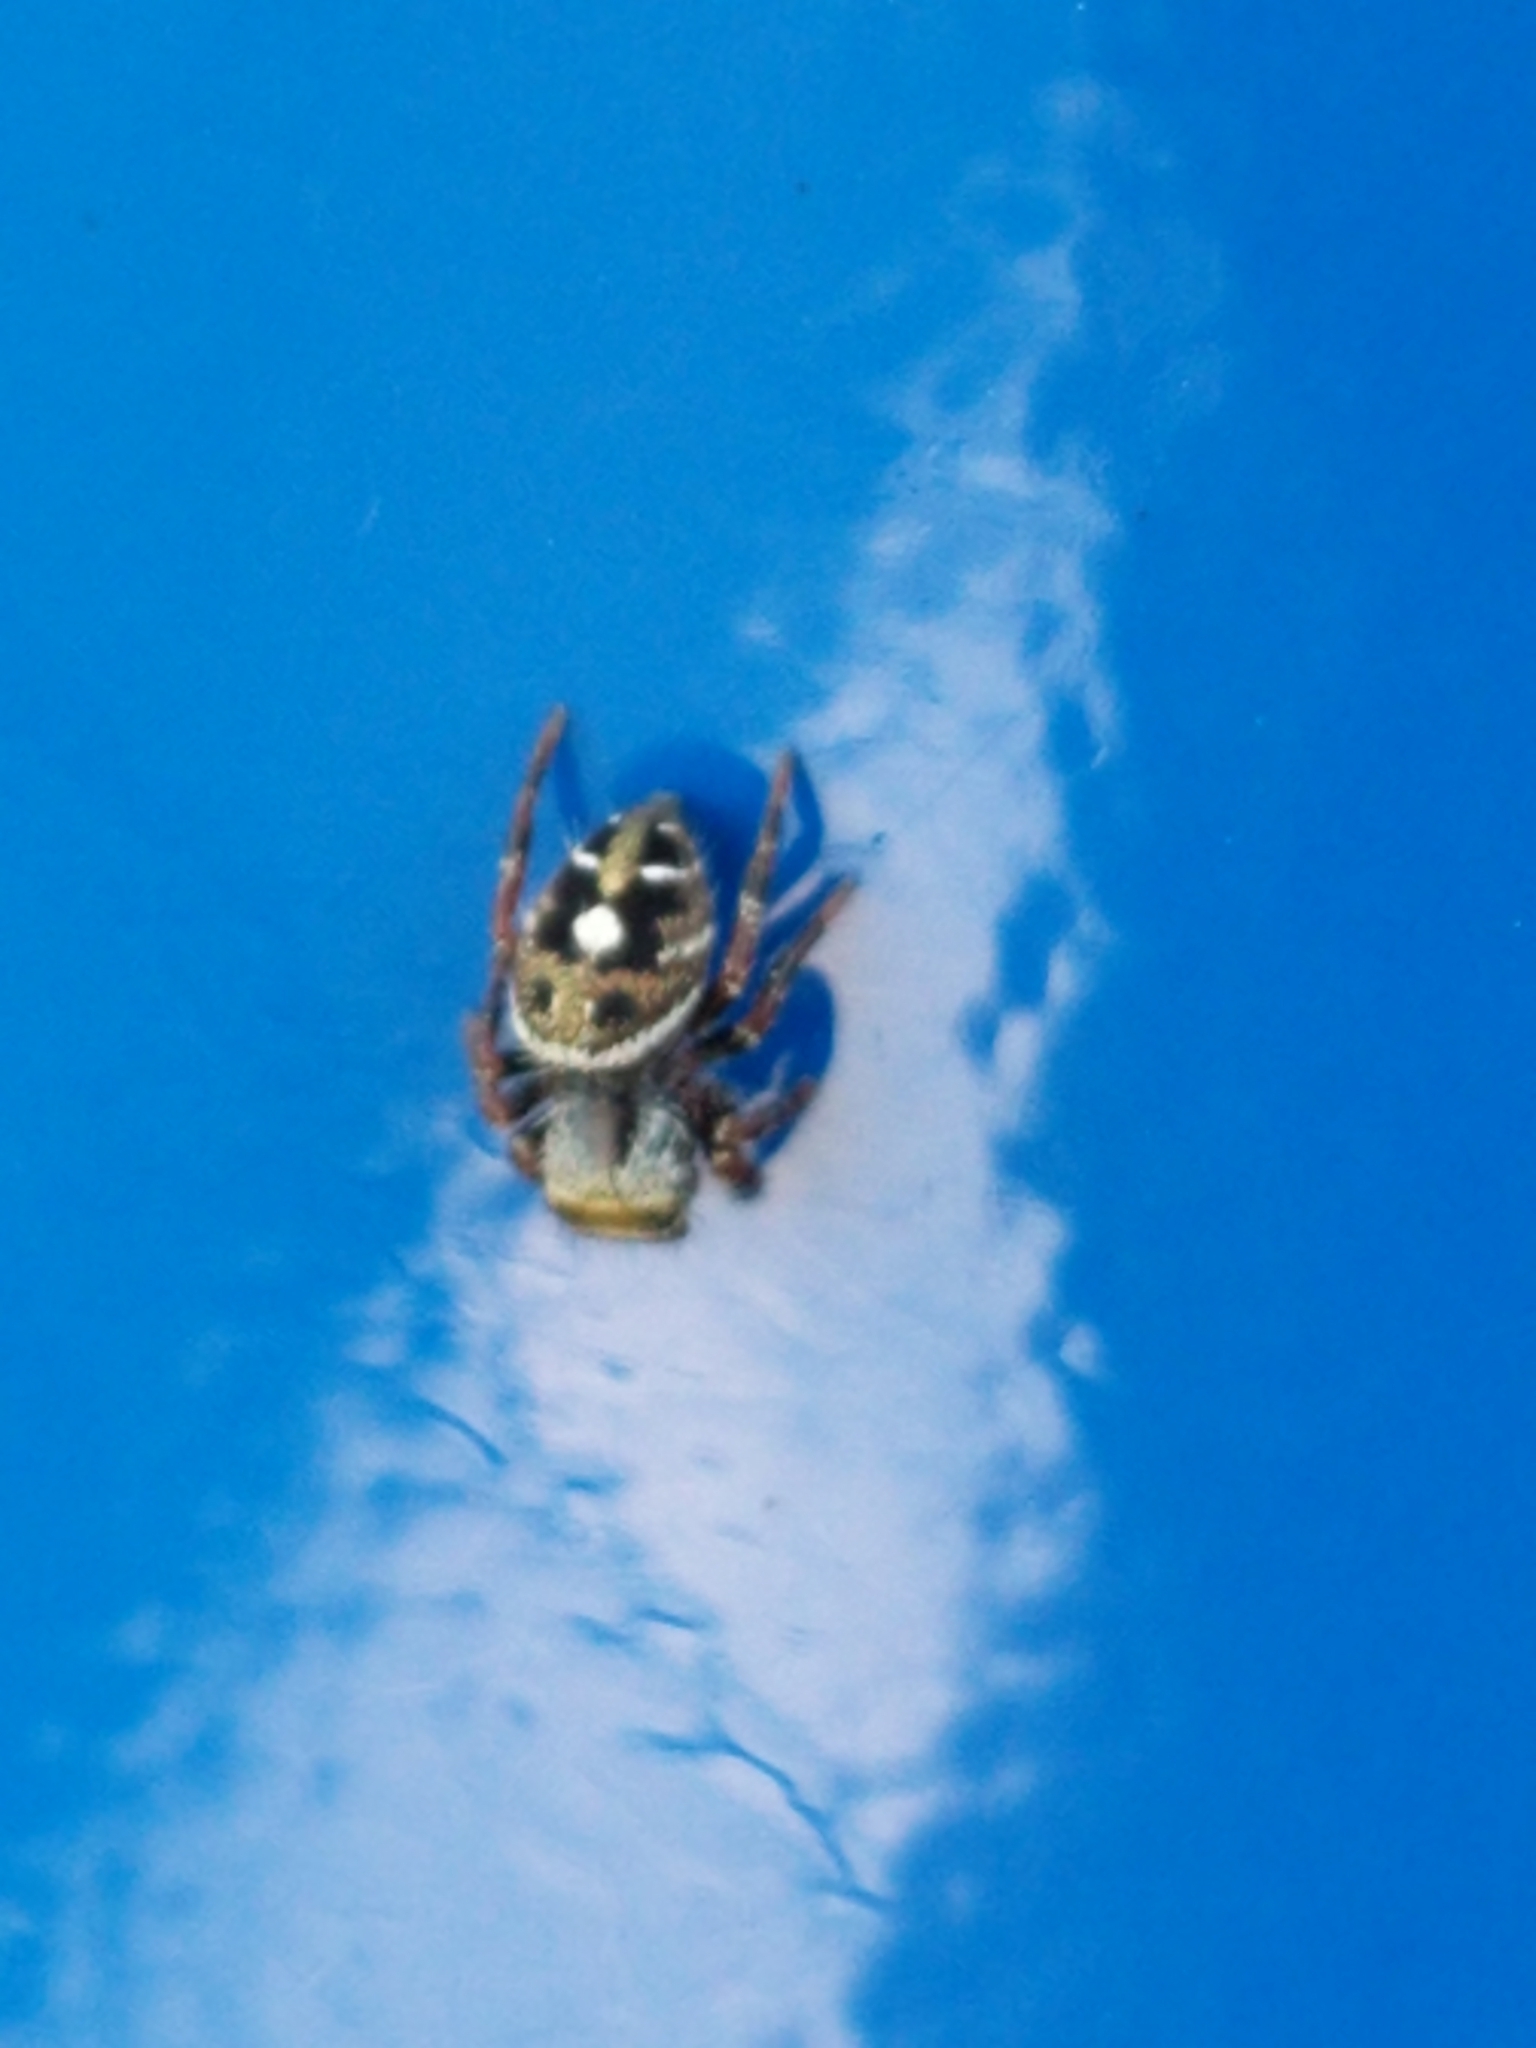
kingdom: Animalia
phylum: Arthropoda
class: Arachnida
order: Araneae
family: Salticidae
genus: Phidippus
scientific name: Phidippus audax
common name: Bold jumper
